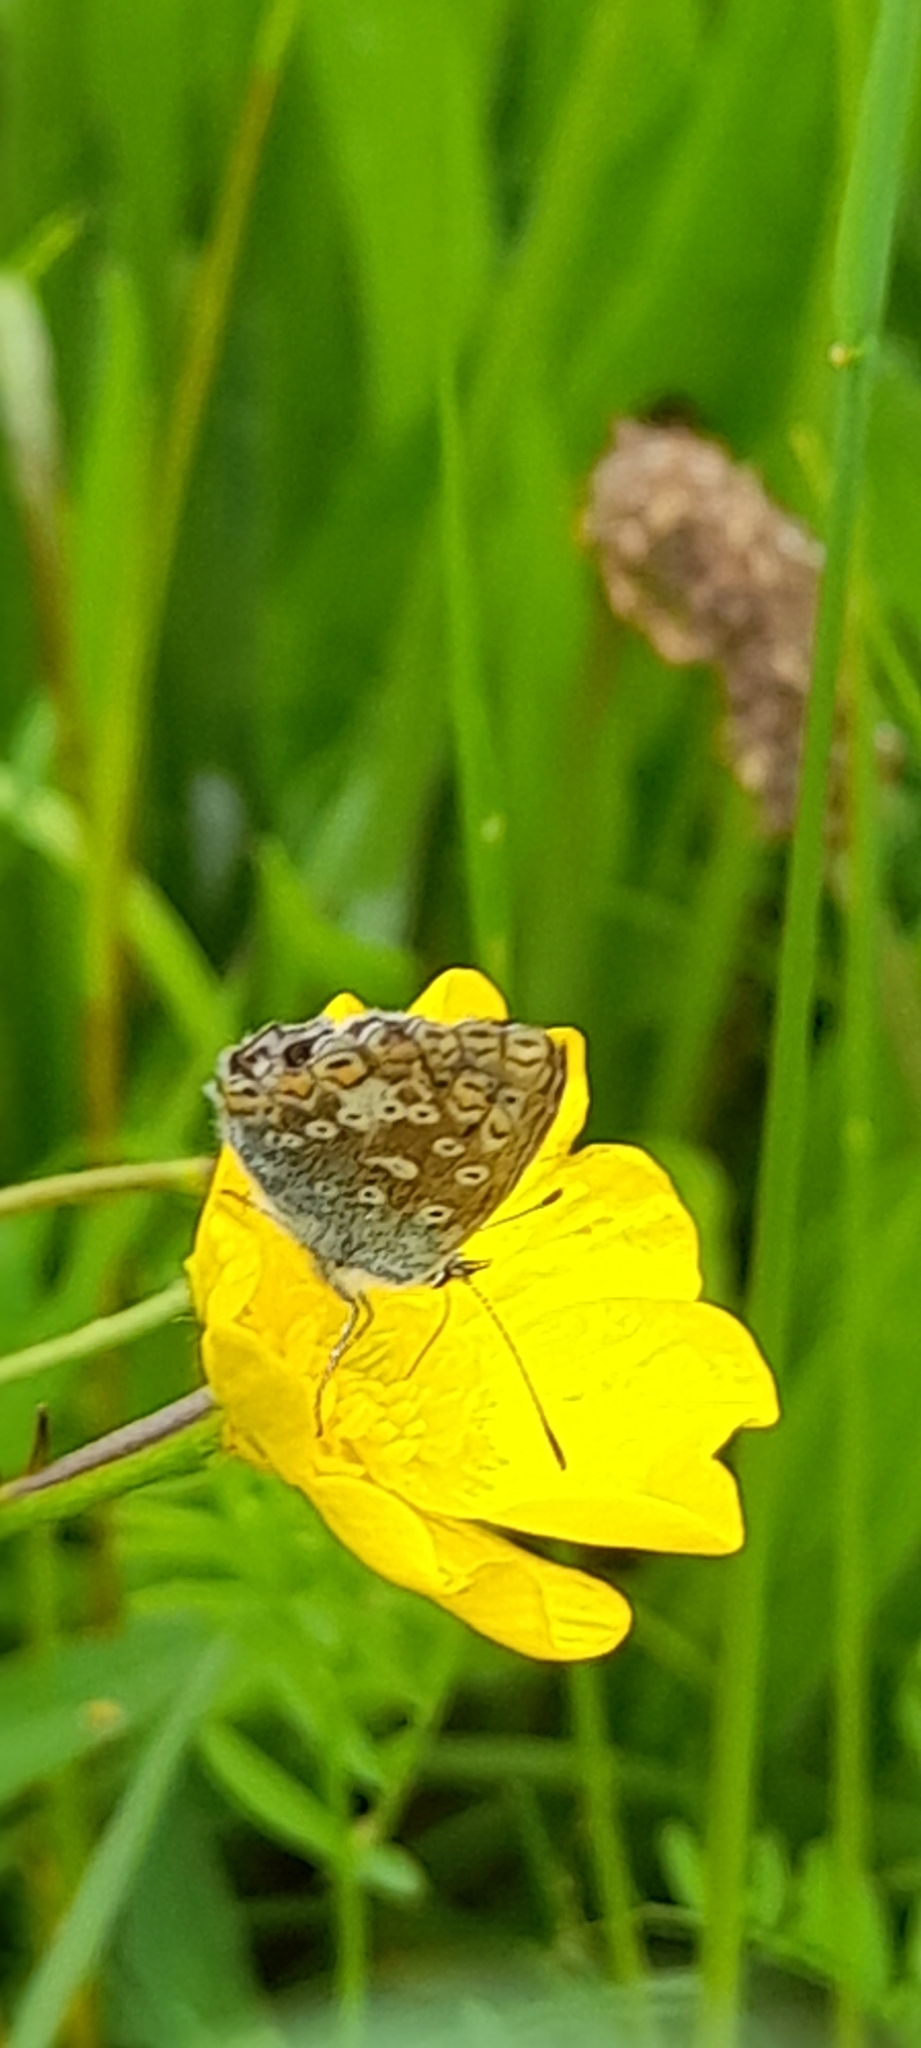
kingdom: Animalia
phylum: Arthropoda
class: Insecta
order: Lepidoptera
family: Lycaenidae
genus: Polyommatus
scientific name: Polyommatus icarus
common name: Common blue
